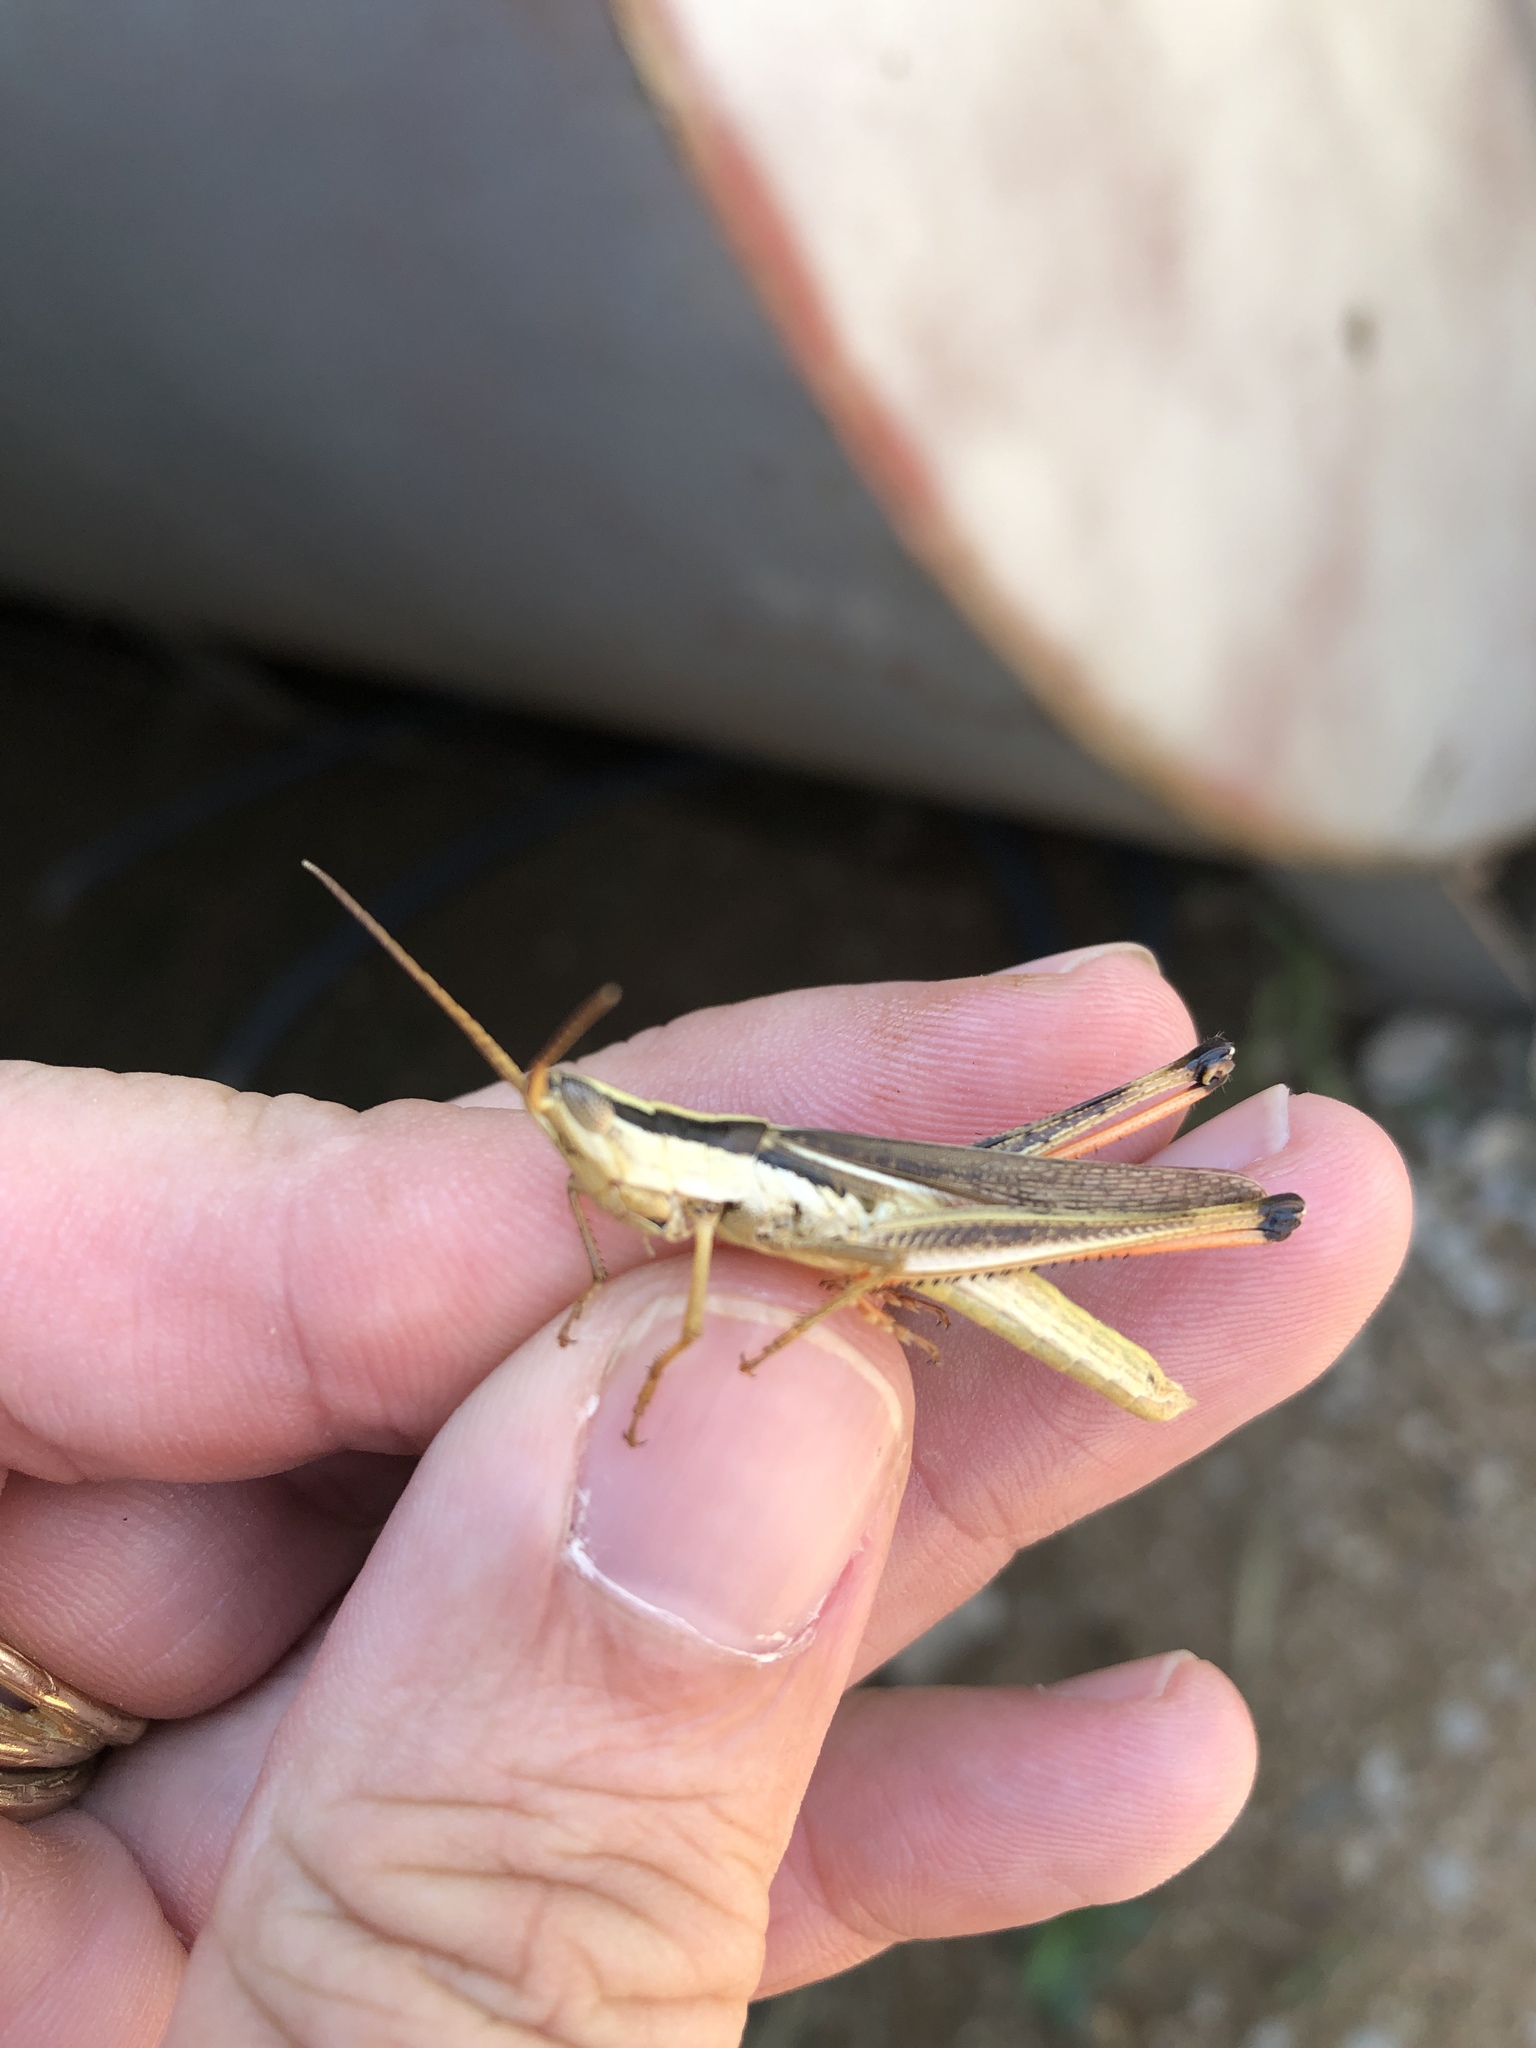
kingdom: Animalia
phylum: Arthropoda
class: Insecta
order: Orthoptera
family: Acrididae
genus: Mermiria
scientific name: Mermiria bivittata
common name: Two-striped mermiria grasshopper
